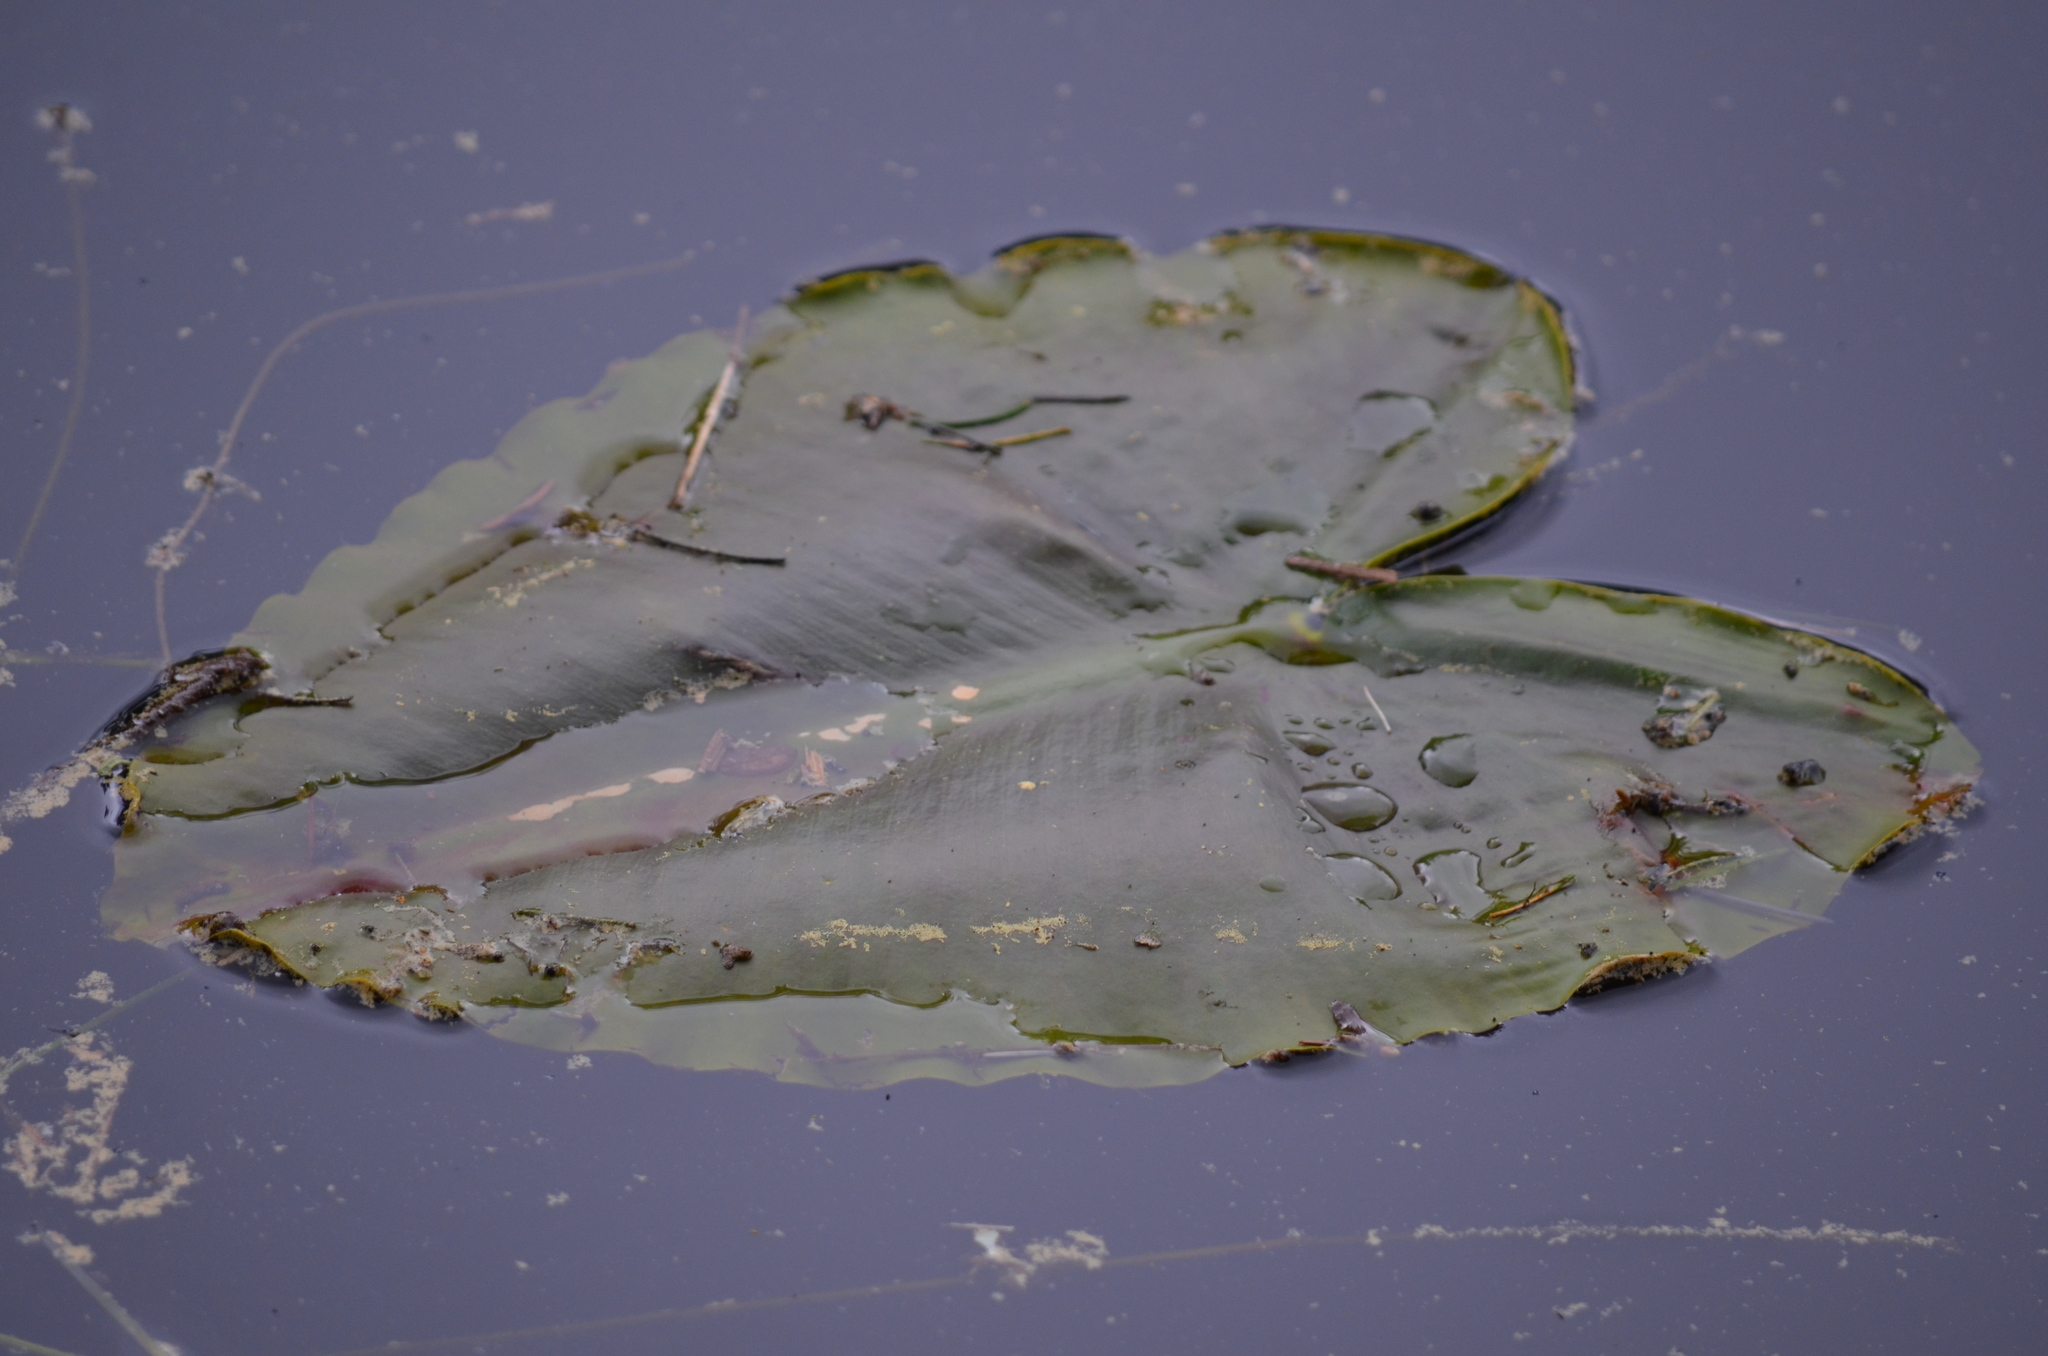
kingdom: Plantae
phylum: Tracheophyta
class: Magnoliopsida
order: Nymphaeales
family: Nymphaeaceae
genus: Nuphar
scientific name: Nuphar polysepala
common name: Rocky mountain cow-lily
